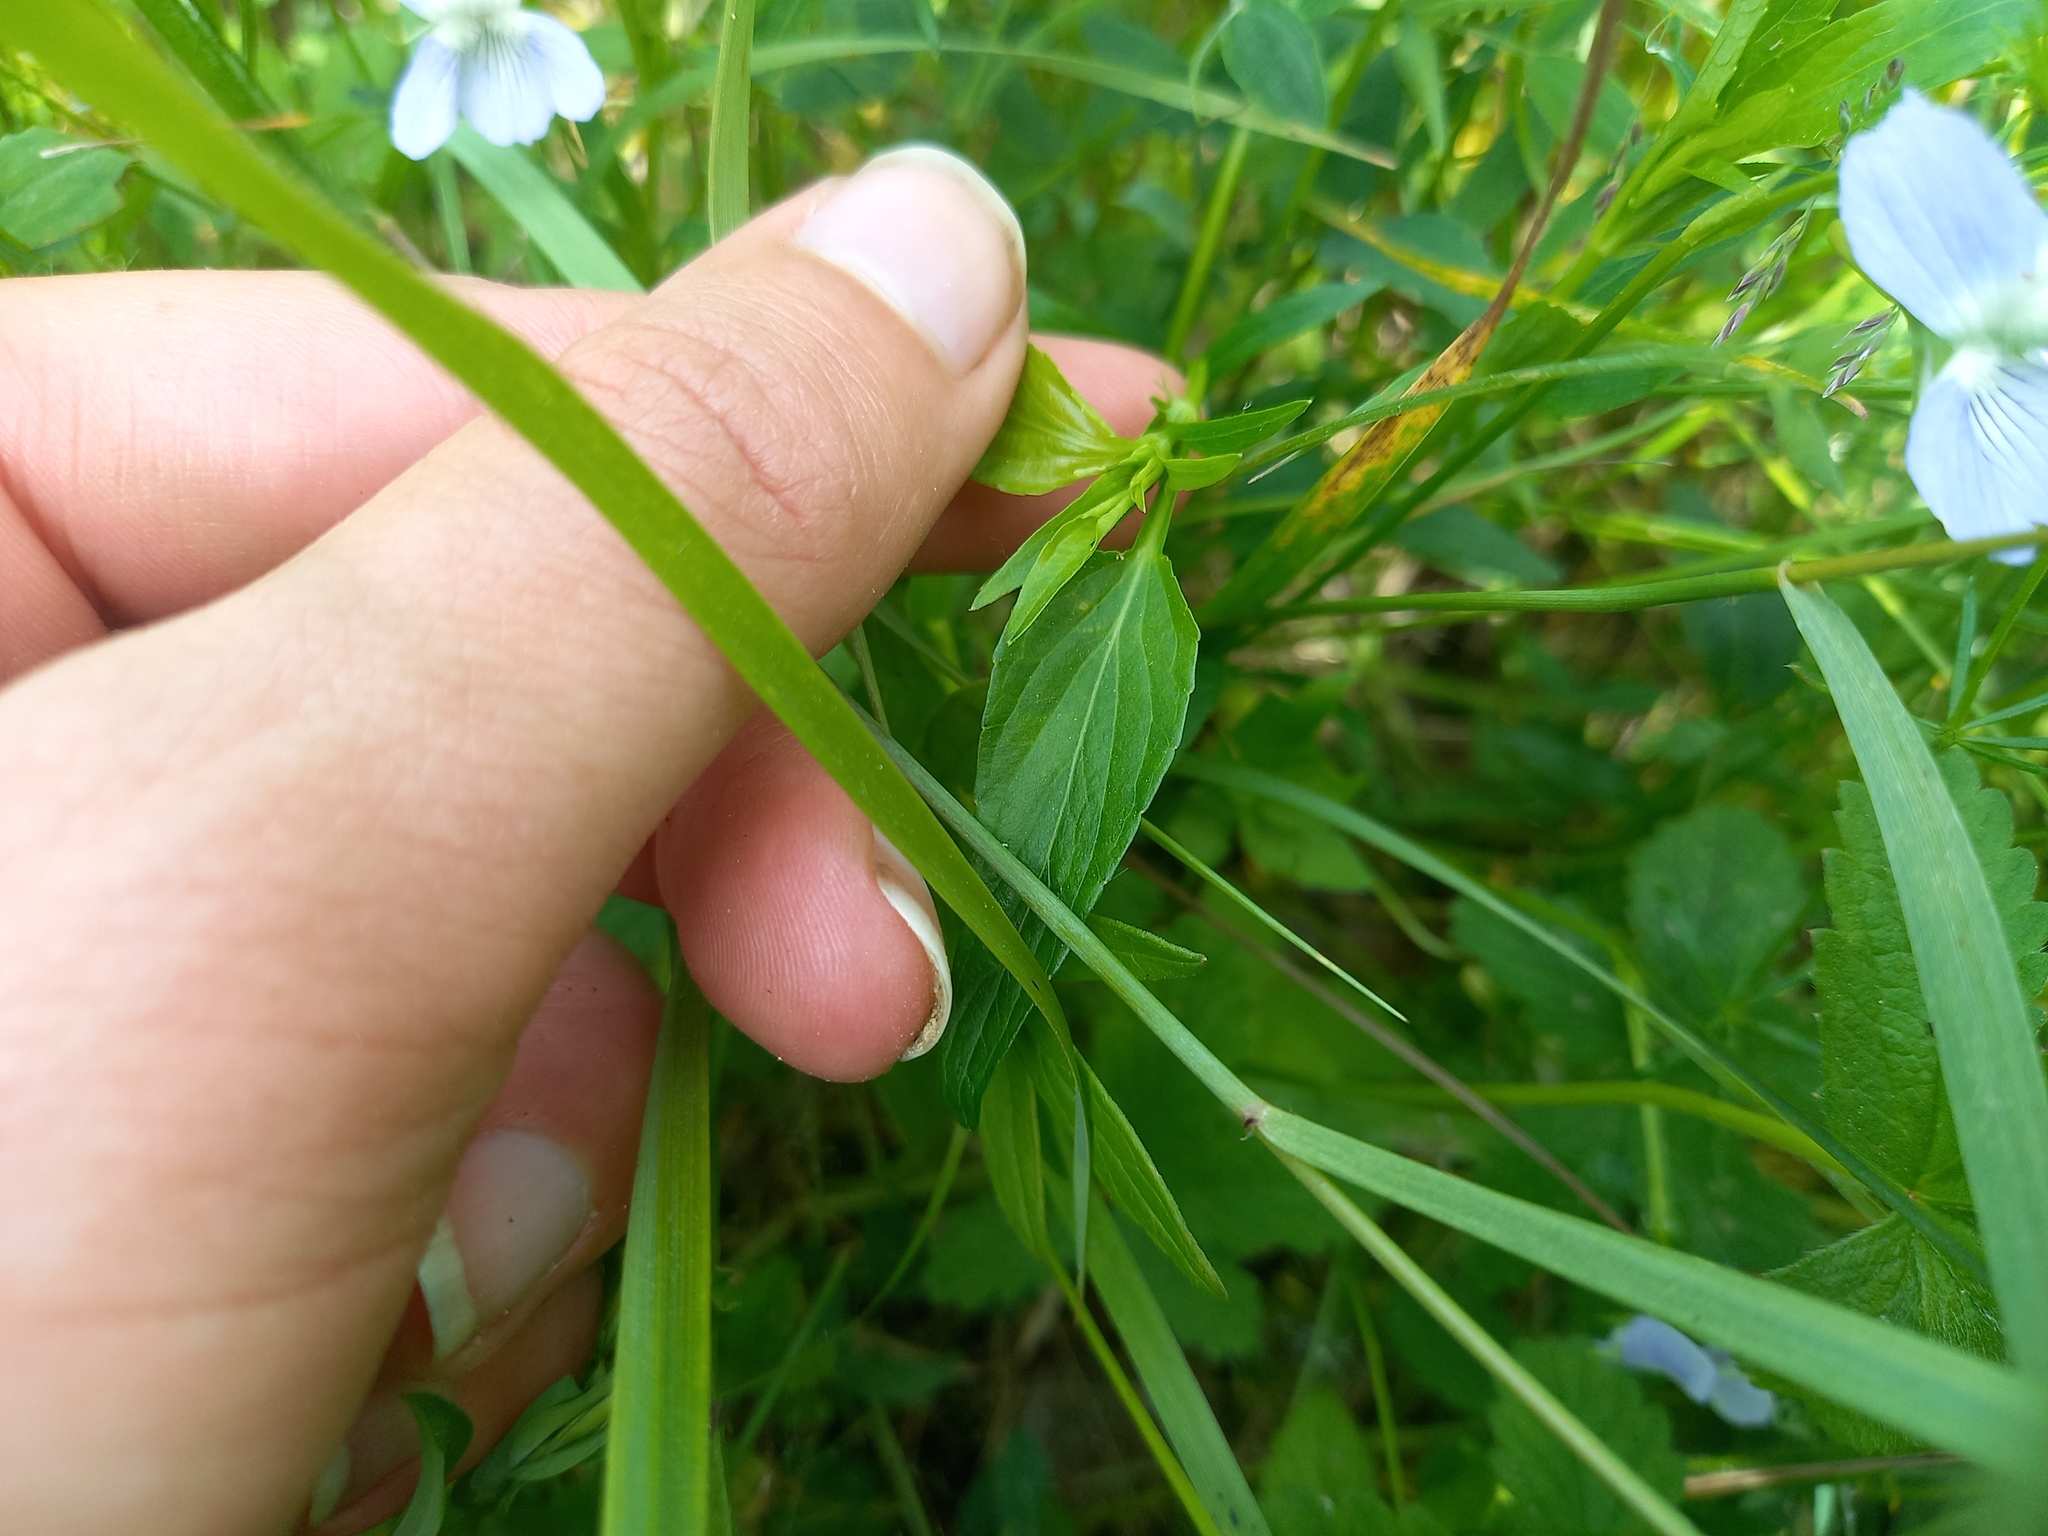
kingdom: Plantae
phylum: Tracheophyta
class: Magnoliopsida
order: Malpighiales
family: Violaceae
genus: Viola
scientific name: Viola pumila
